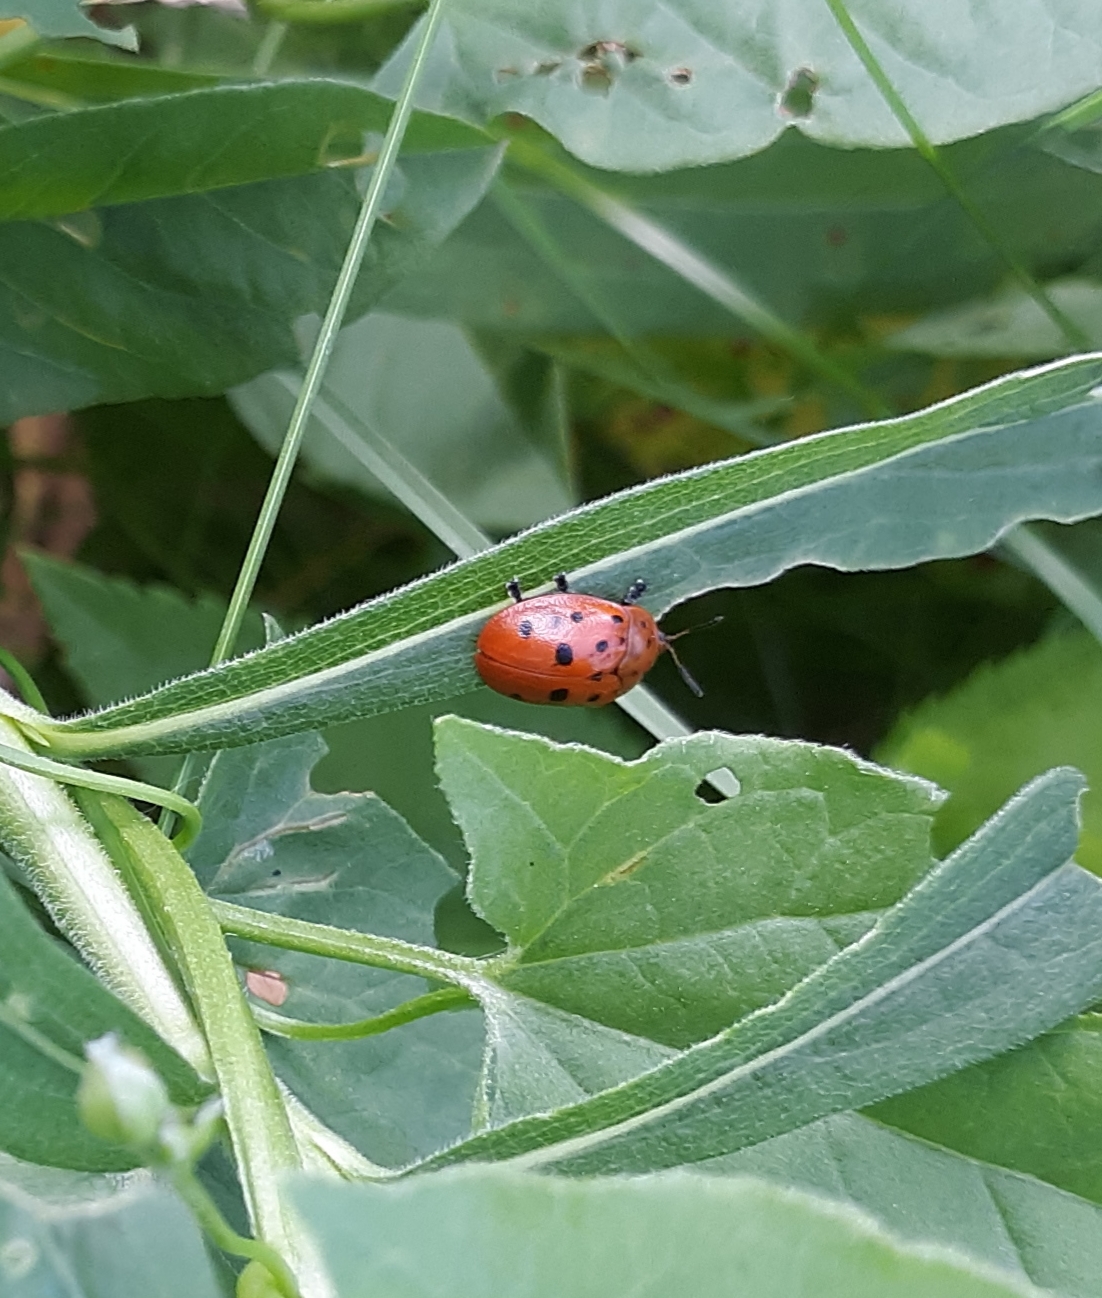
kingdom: Animalia
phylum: Arthropoda
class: Insecta
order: Coleoptera
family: Chrysomelidae
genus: Chelymorpha
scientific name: Chelymorpha cassidea
